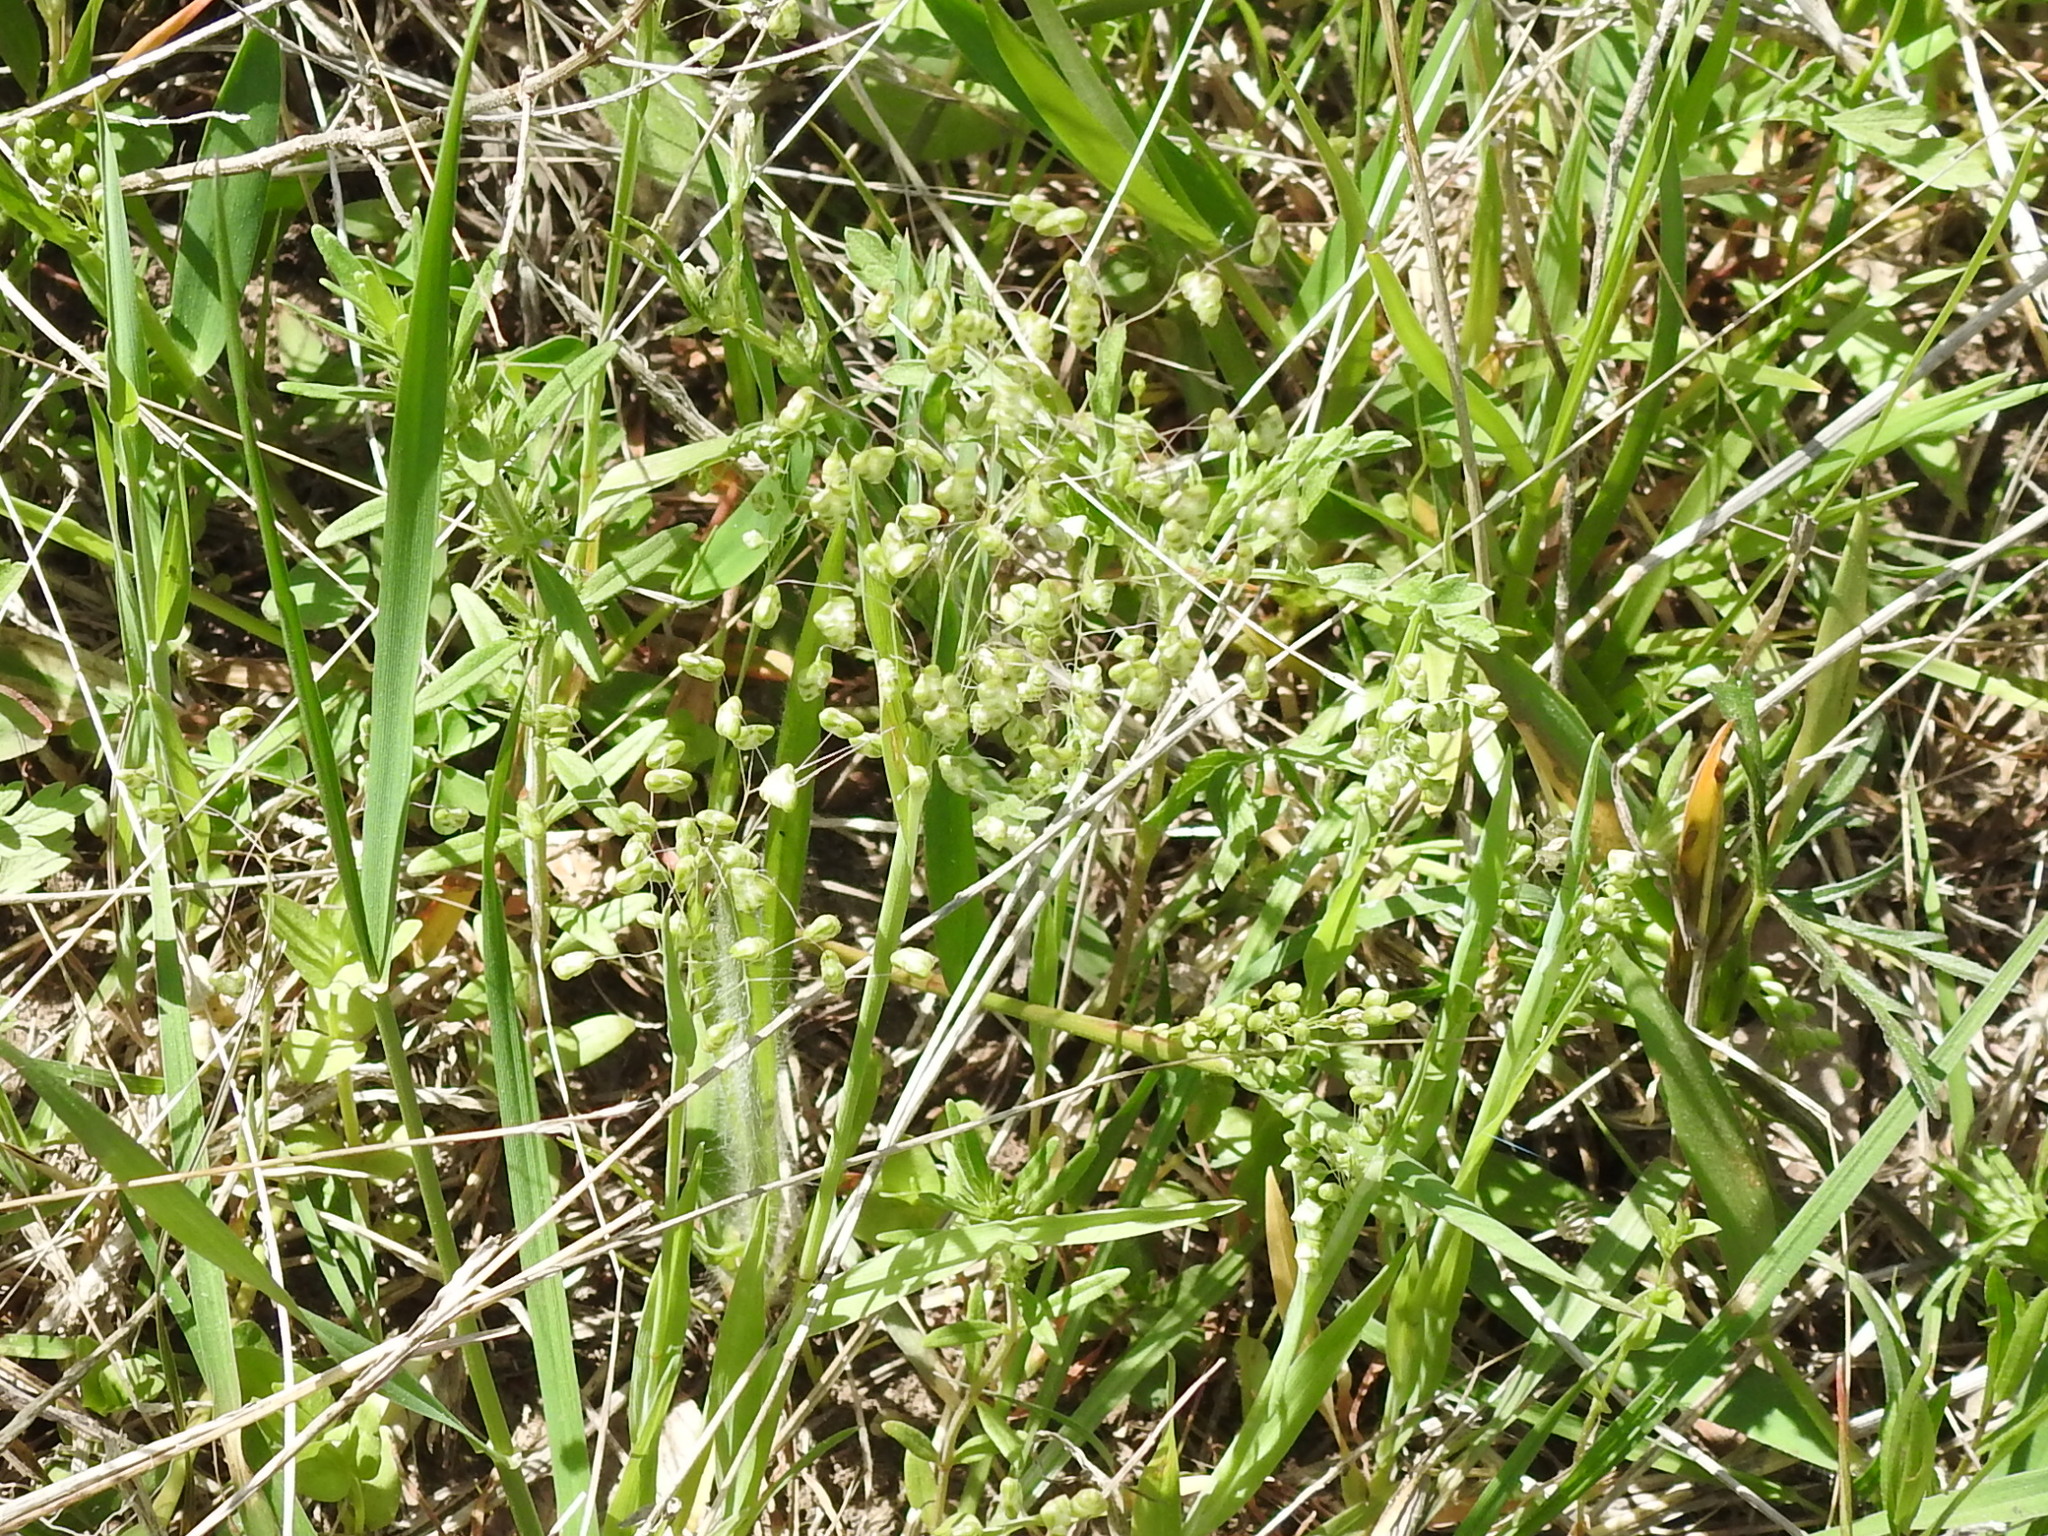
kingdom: Plantae
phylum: Tracheophyta
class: Liliopsida
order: Poales
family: Poaceae
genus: Briza
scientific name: Briza minor
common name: Lesser quaking-grass
